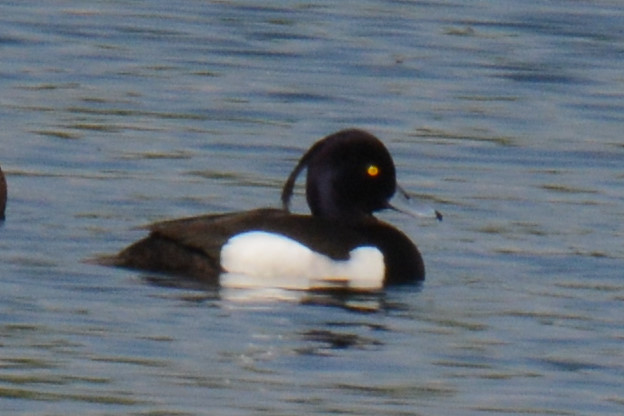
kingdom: Animalia
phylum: Chordata
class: Aves
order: Anseriformes
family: Anatidae
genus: Aythya
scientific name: Aythya fuligula
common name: Tufted duck
